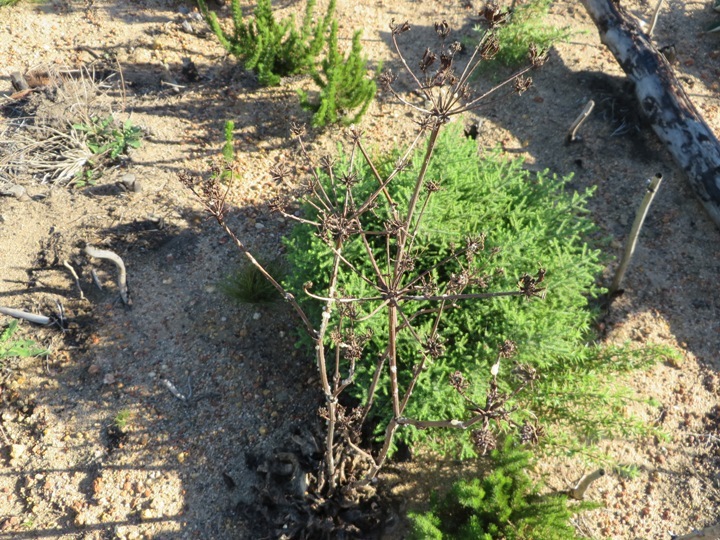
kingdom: Plantae
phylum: Tracheophyta
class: Magnoliopsida
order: Apiales
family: Apiaceae
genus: Lichtensteinia
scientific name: Lichtensteinia lacera
